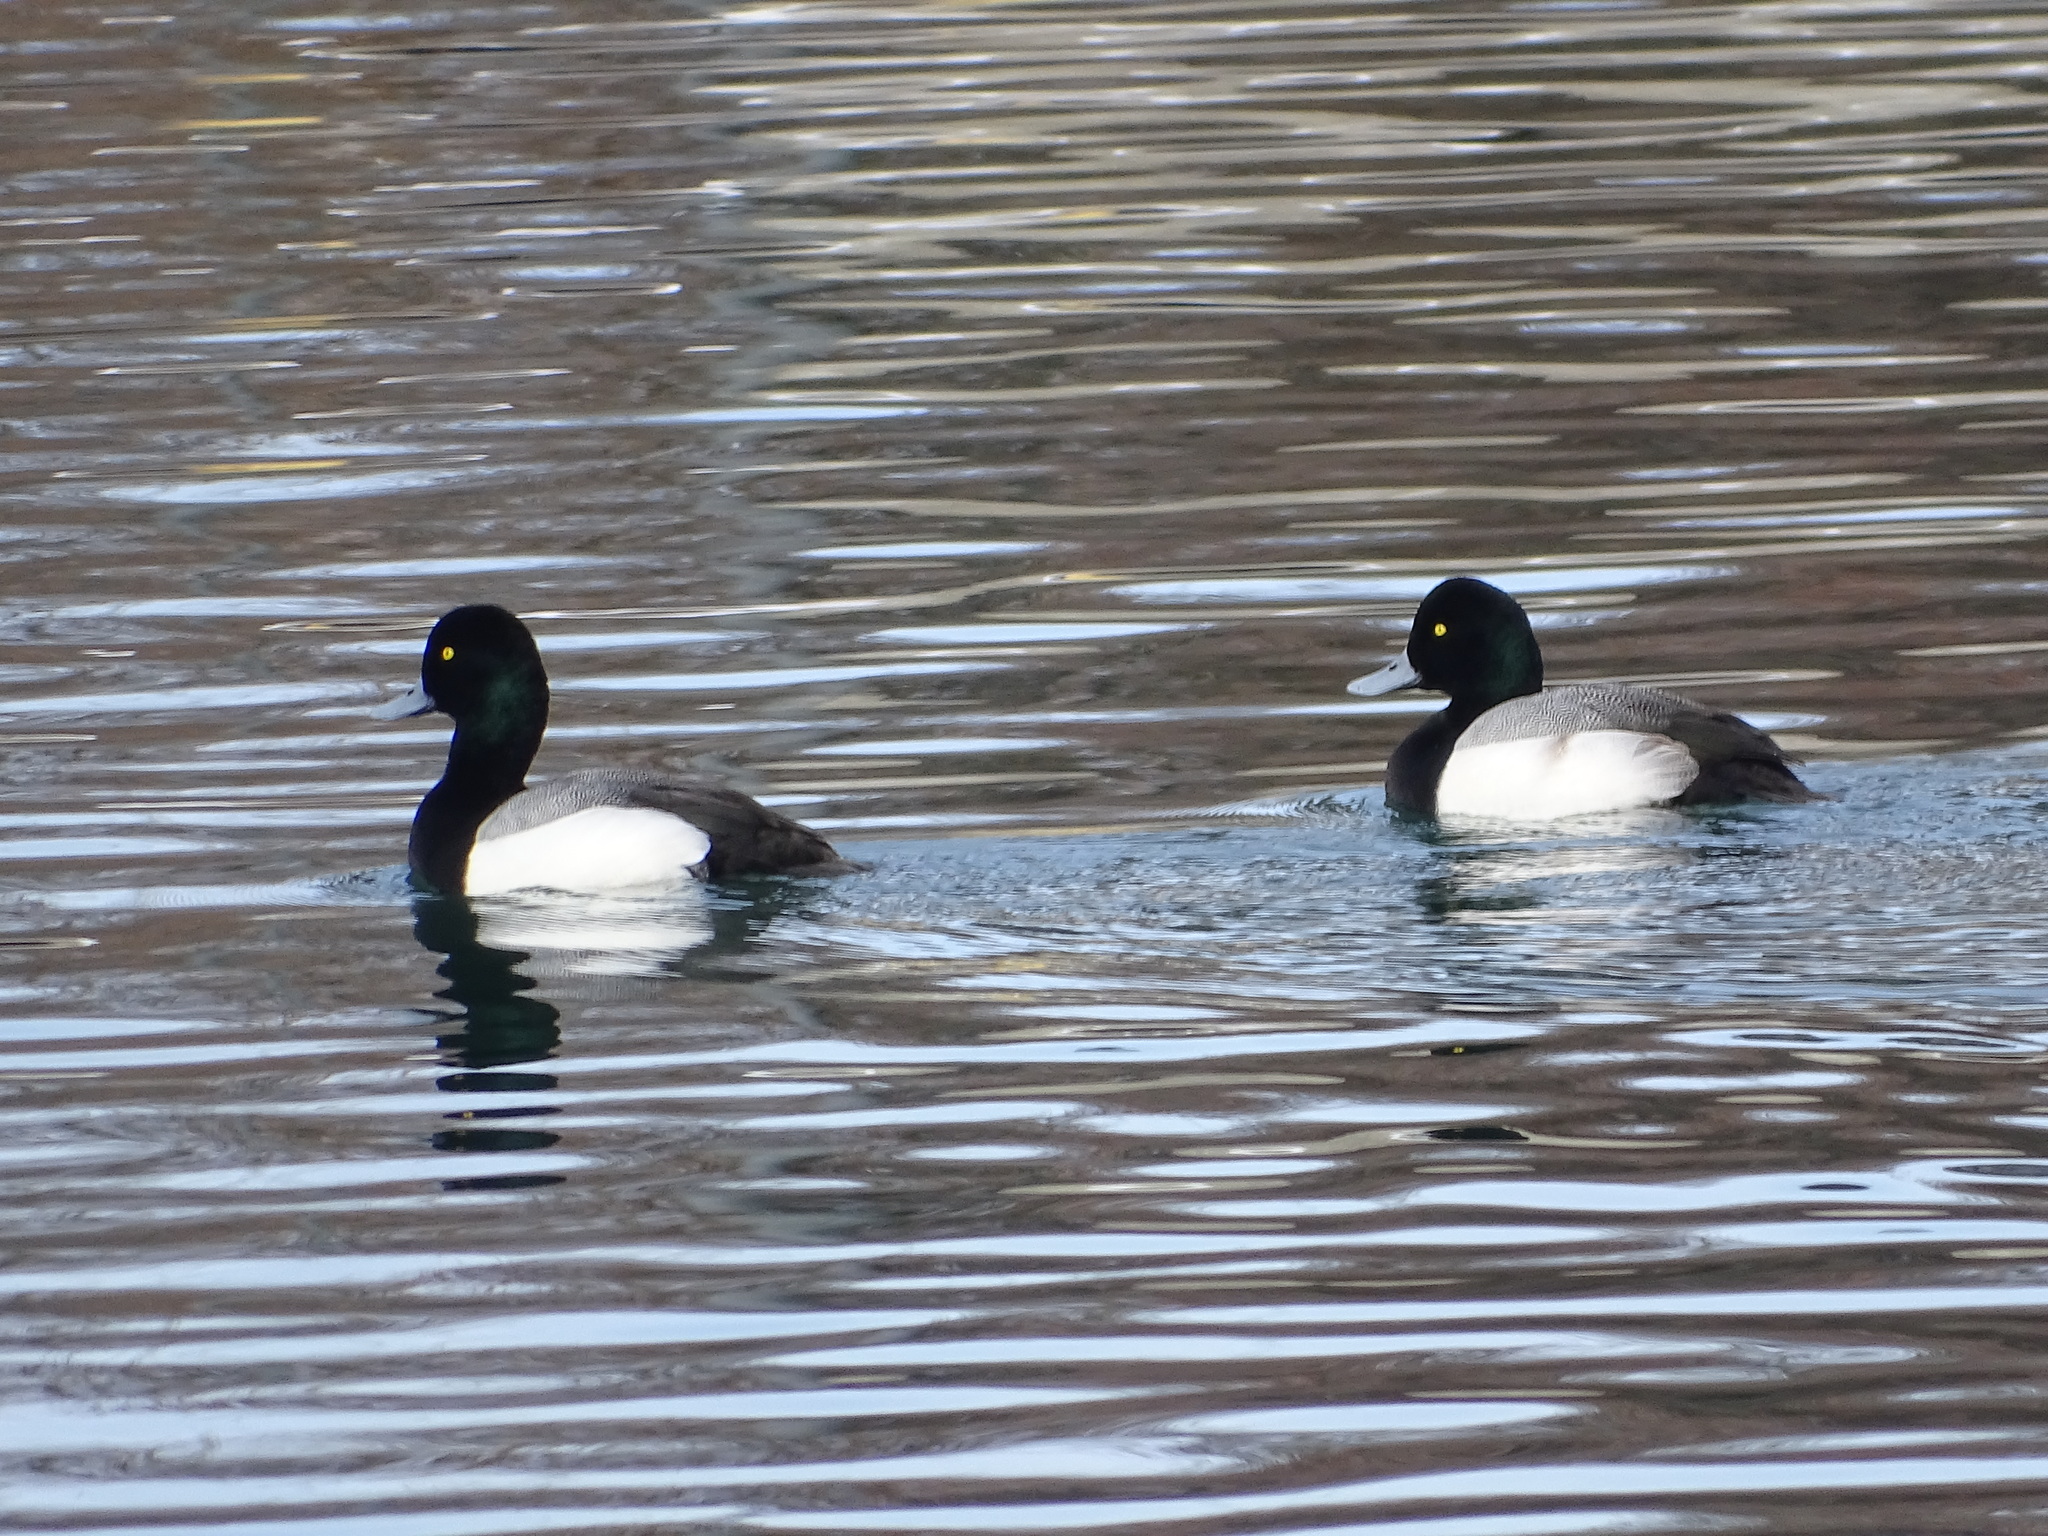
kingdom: Animalia
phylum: Chordata
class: Aves
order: Anseriformes
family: Anatidae
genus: Aythya
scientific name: Aythya marila
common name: Greater scaup
